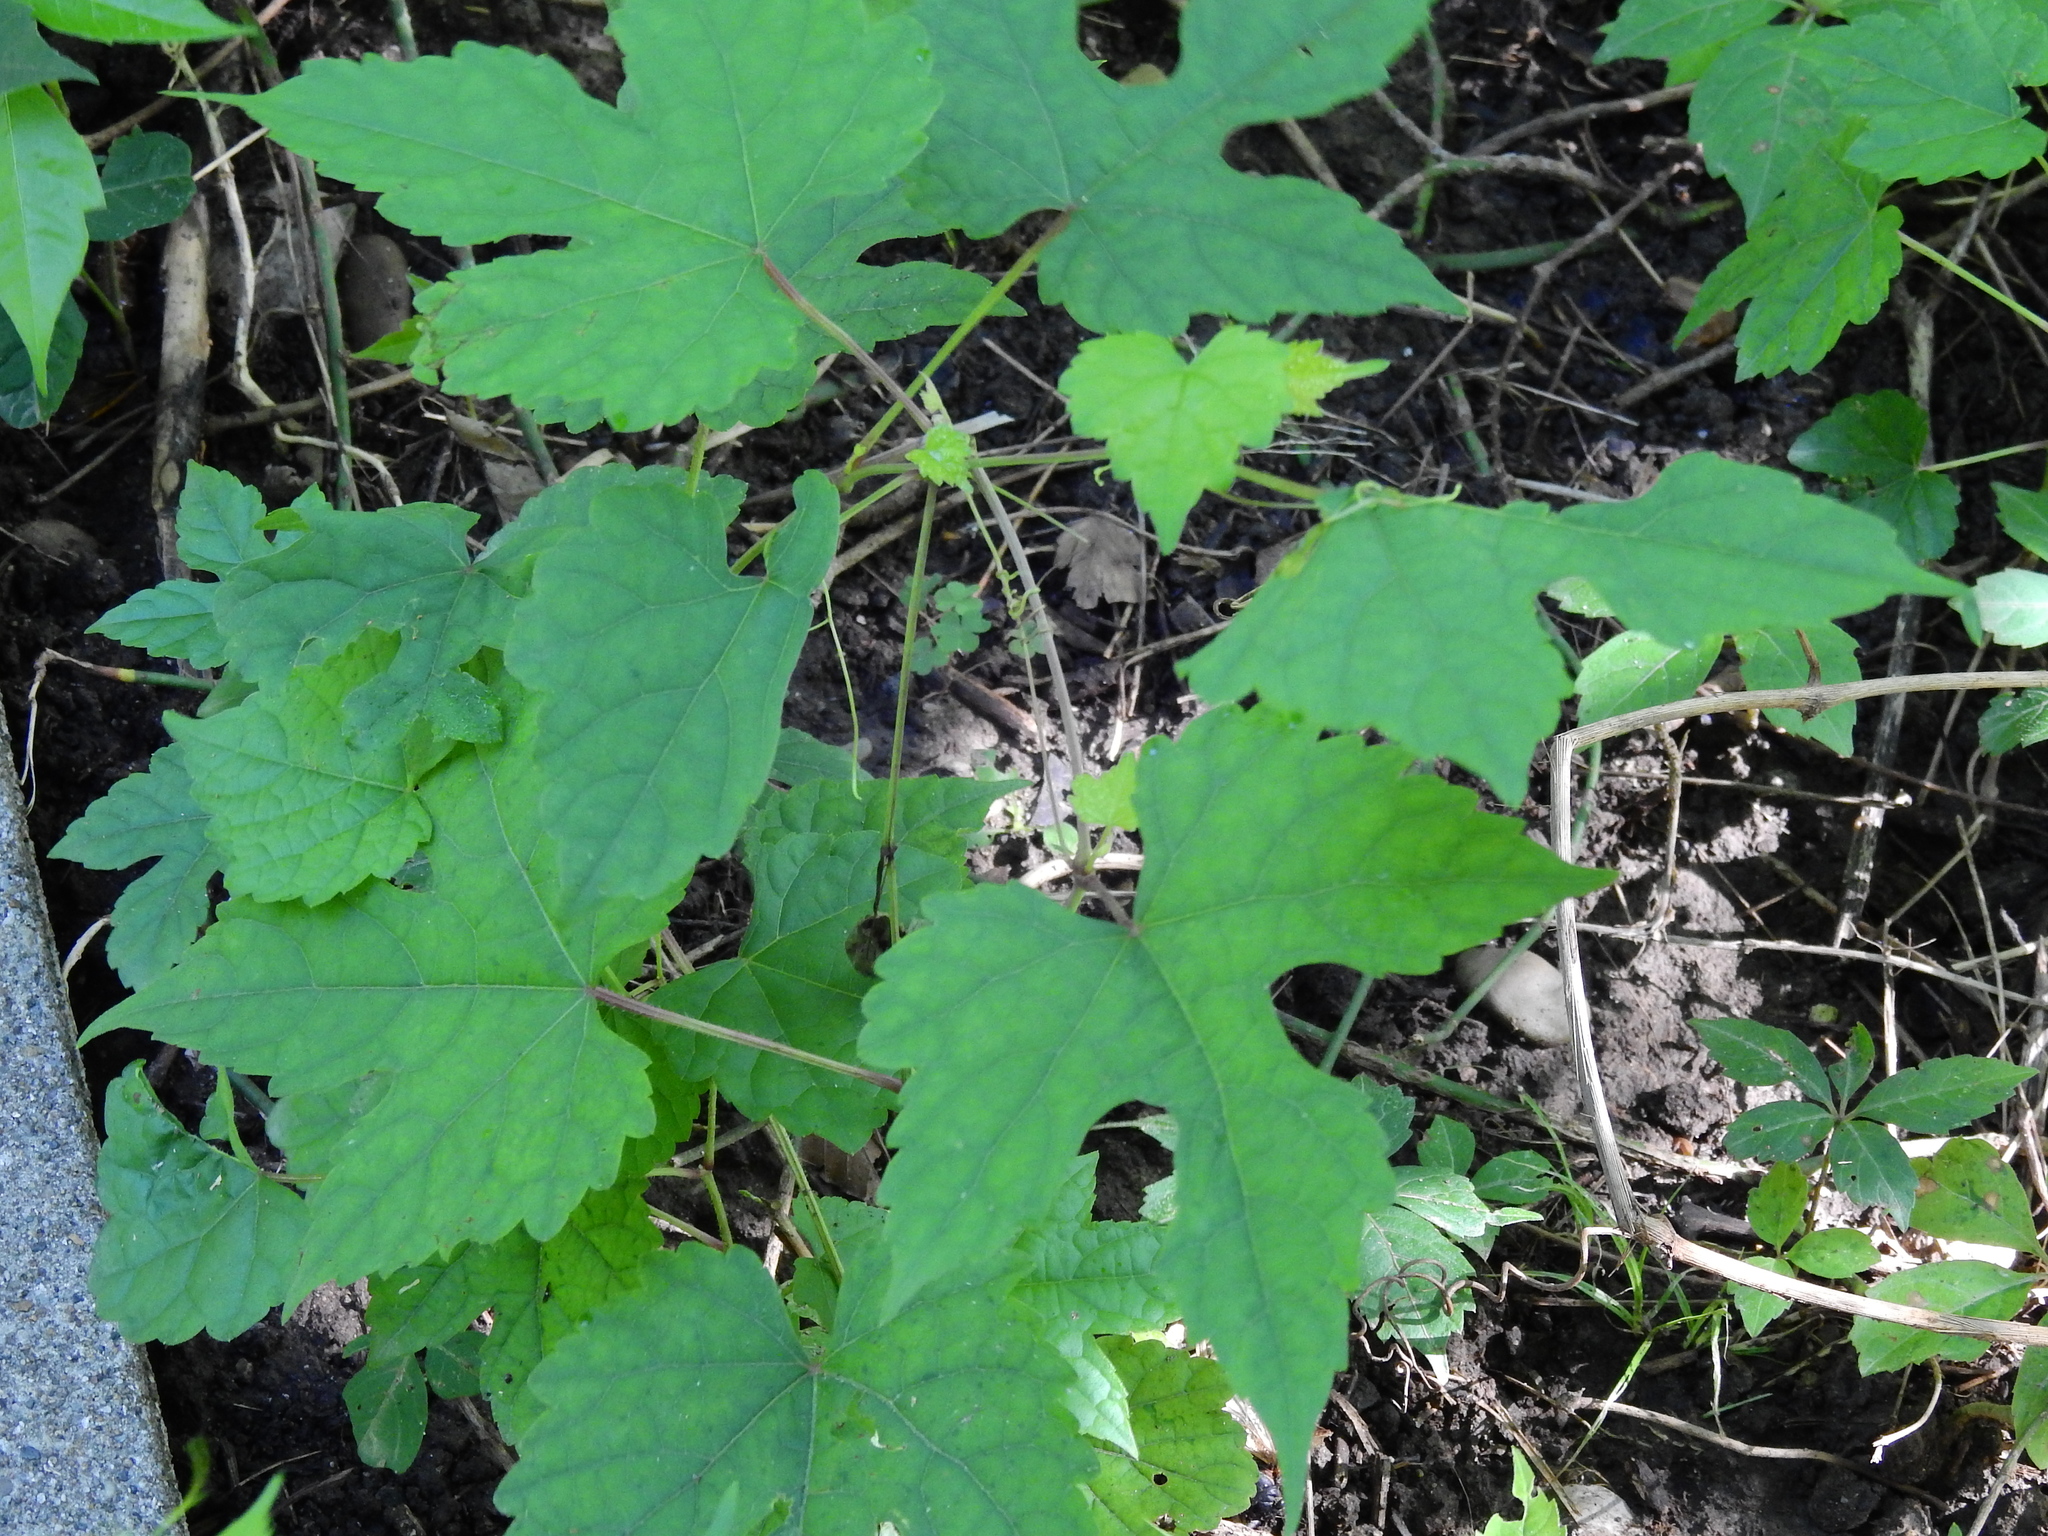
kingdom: Plantae
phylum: Tracheophyta
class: Magnoliopsida
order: Vitales
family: Vitaceae
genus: Ampelopsis
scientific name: Ampelopsis glandulosa
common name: Amur peppervine
